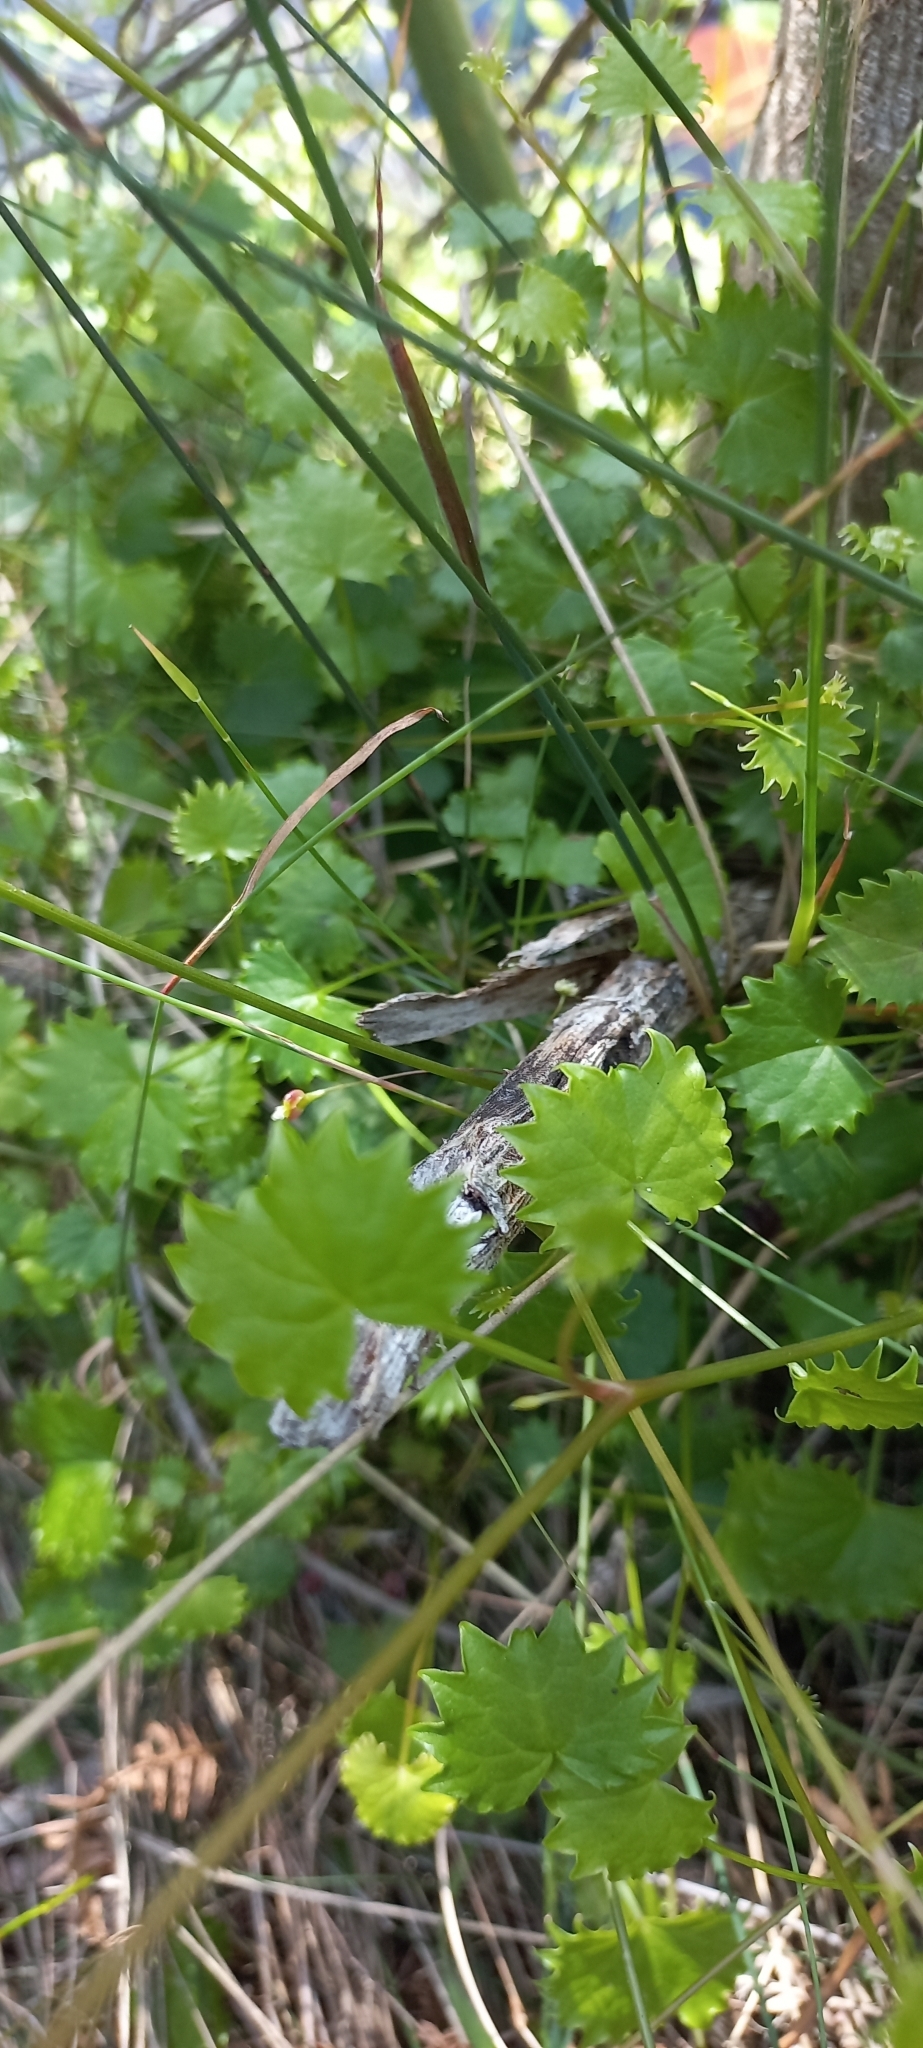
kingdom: Plantae
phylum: Tracheophyta
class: Magnoliopsida
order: Apiales
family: Apiaceae
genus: Centella
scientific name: Centella callioda
